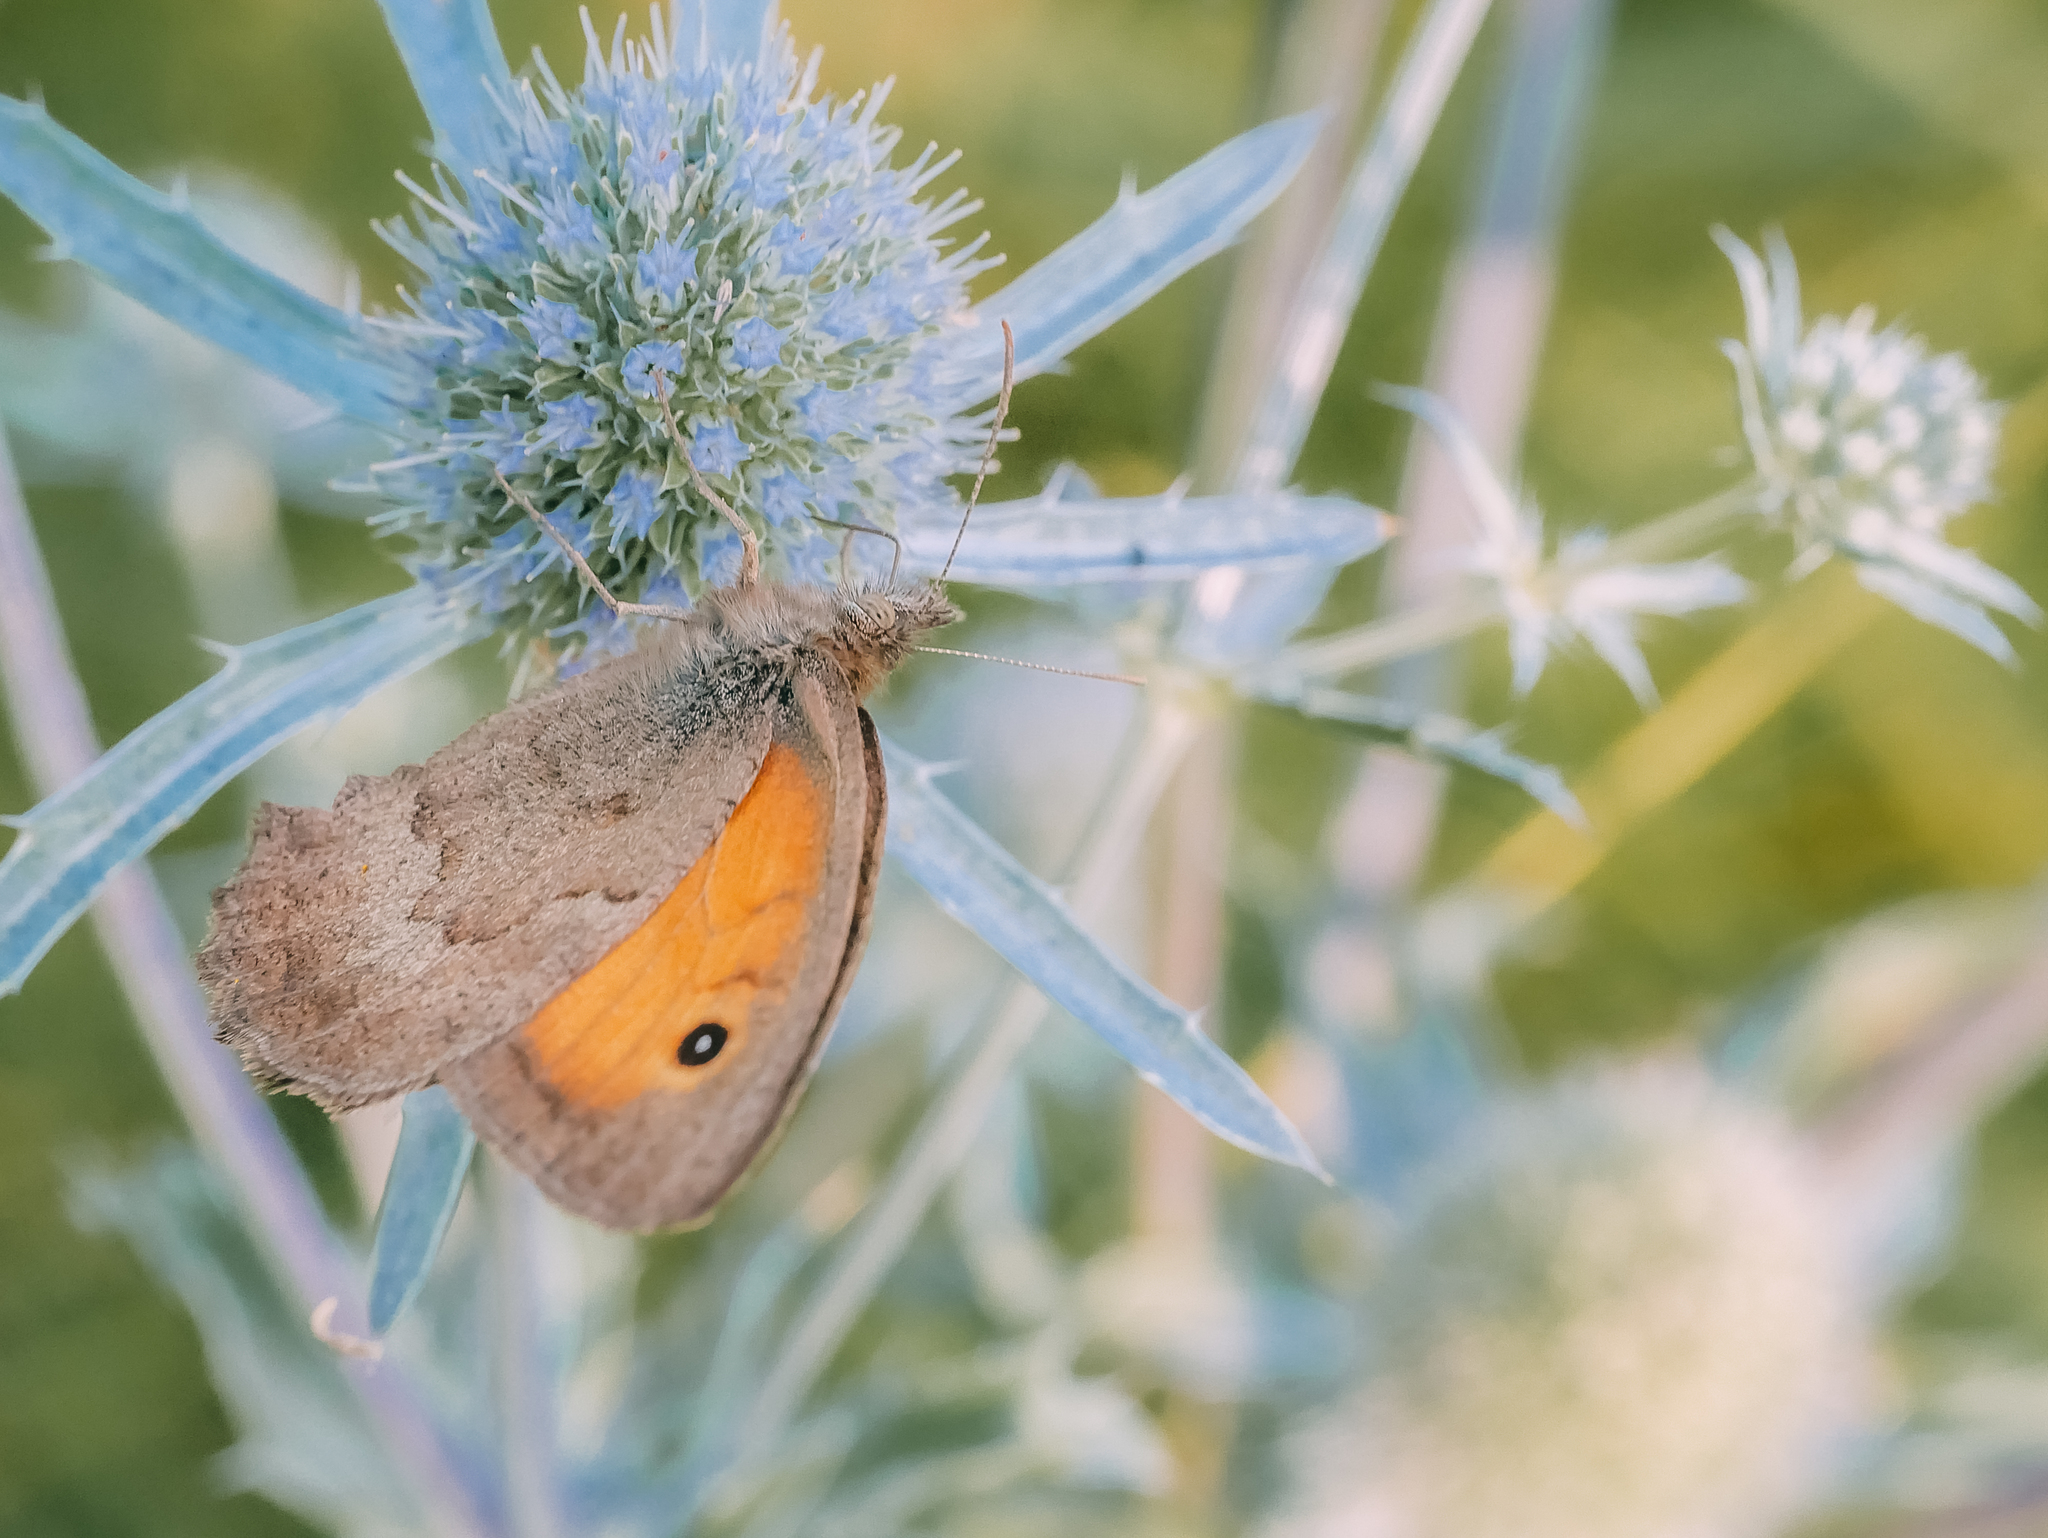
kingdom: Animalia
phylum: Arthropoda
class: Insecta
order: Lepidoptera
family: Nymphalidae
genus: Hyponephele
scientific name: Hyponephele lycaon
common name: Dusky meadow brown
